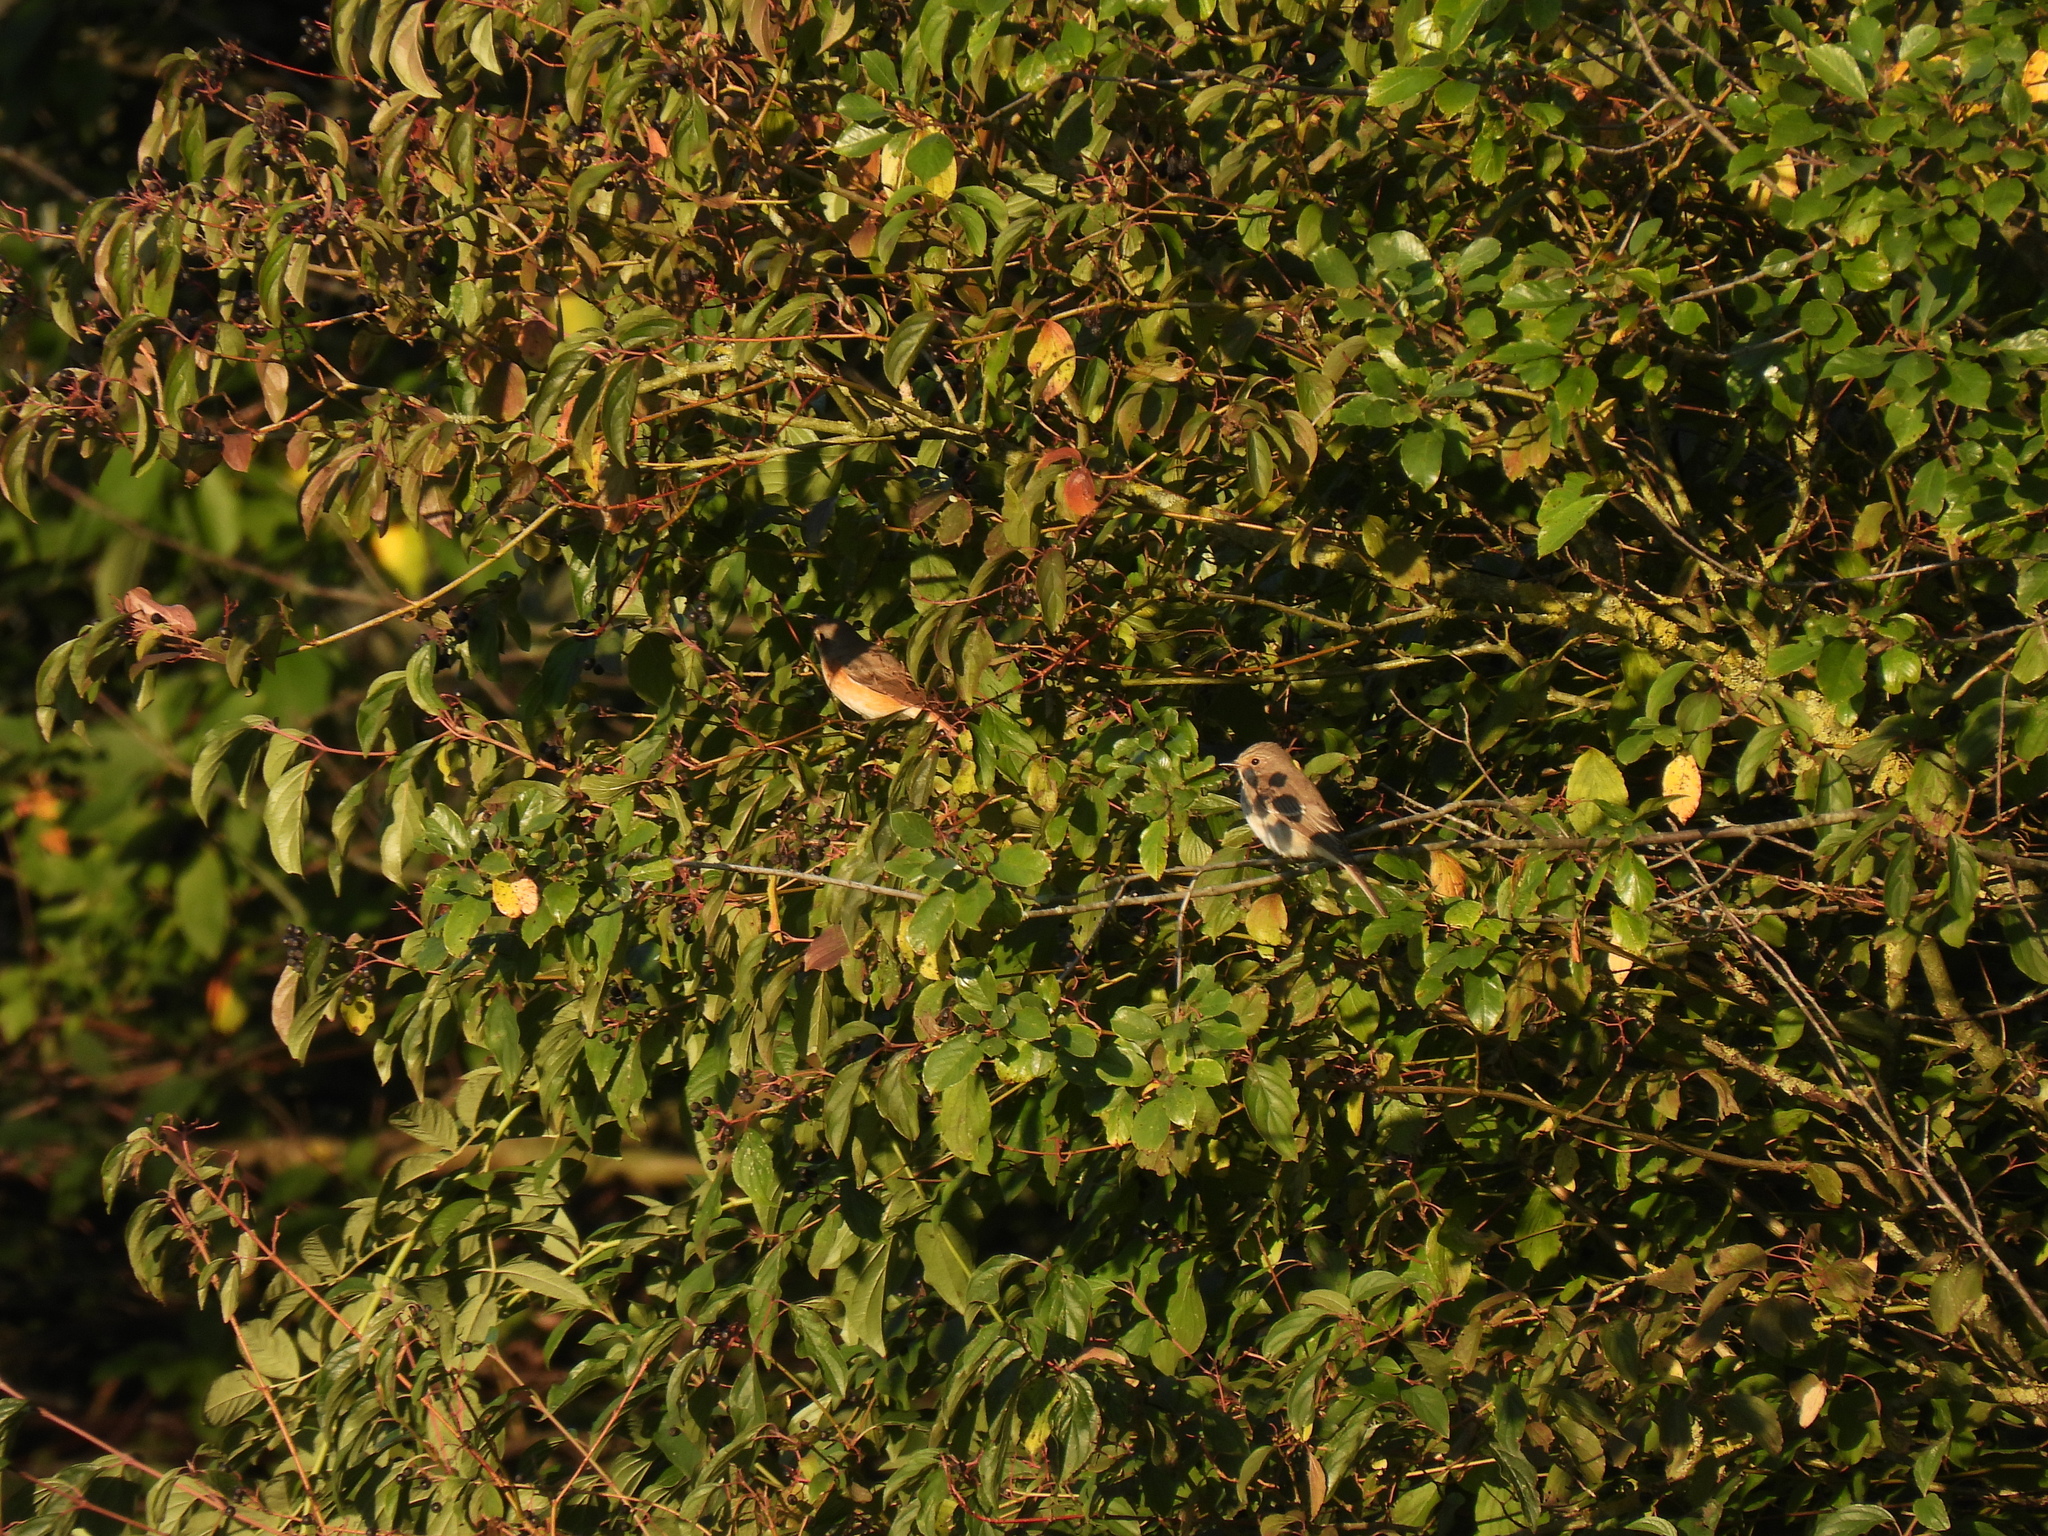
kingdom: Animalia
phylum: Chordata
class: Aves
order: Passeriformes
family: Muscicapidae
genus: Phoenicurus
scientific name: Phoenicurus phoenicurus
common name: Common redstart
